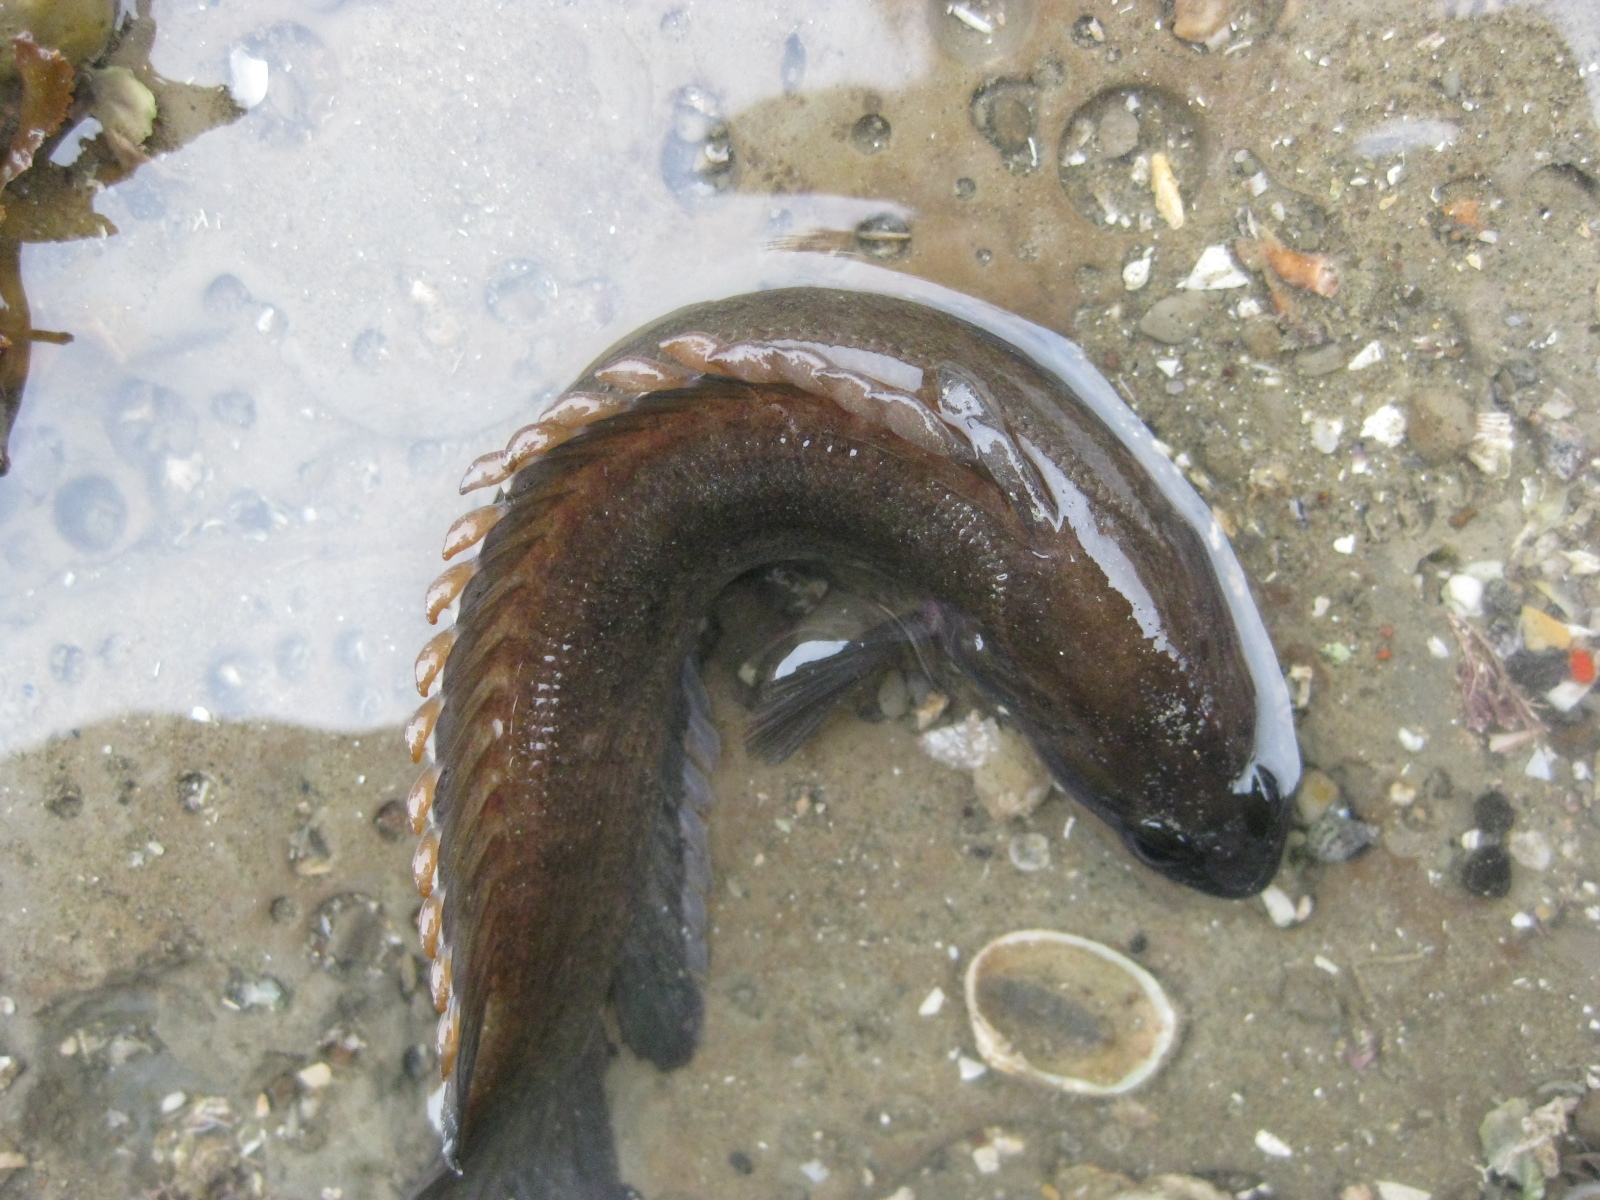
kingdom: Animalia
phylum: Chordata
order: Perciformes
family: Plesiopidae
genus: Acanthoclinus
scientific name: Acanthoclinus marilynae
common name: Stout rockfish
